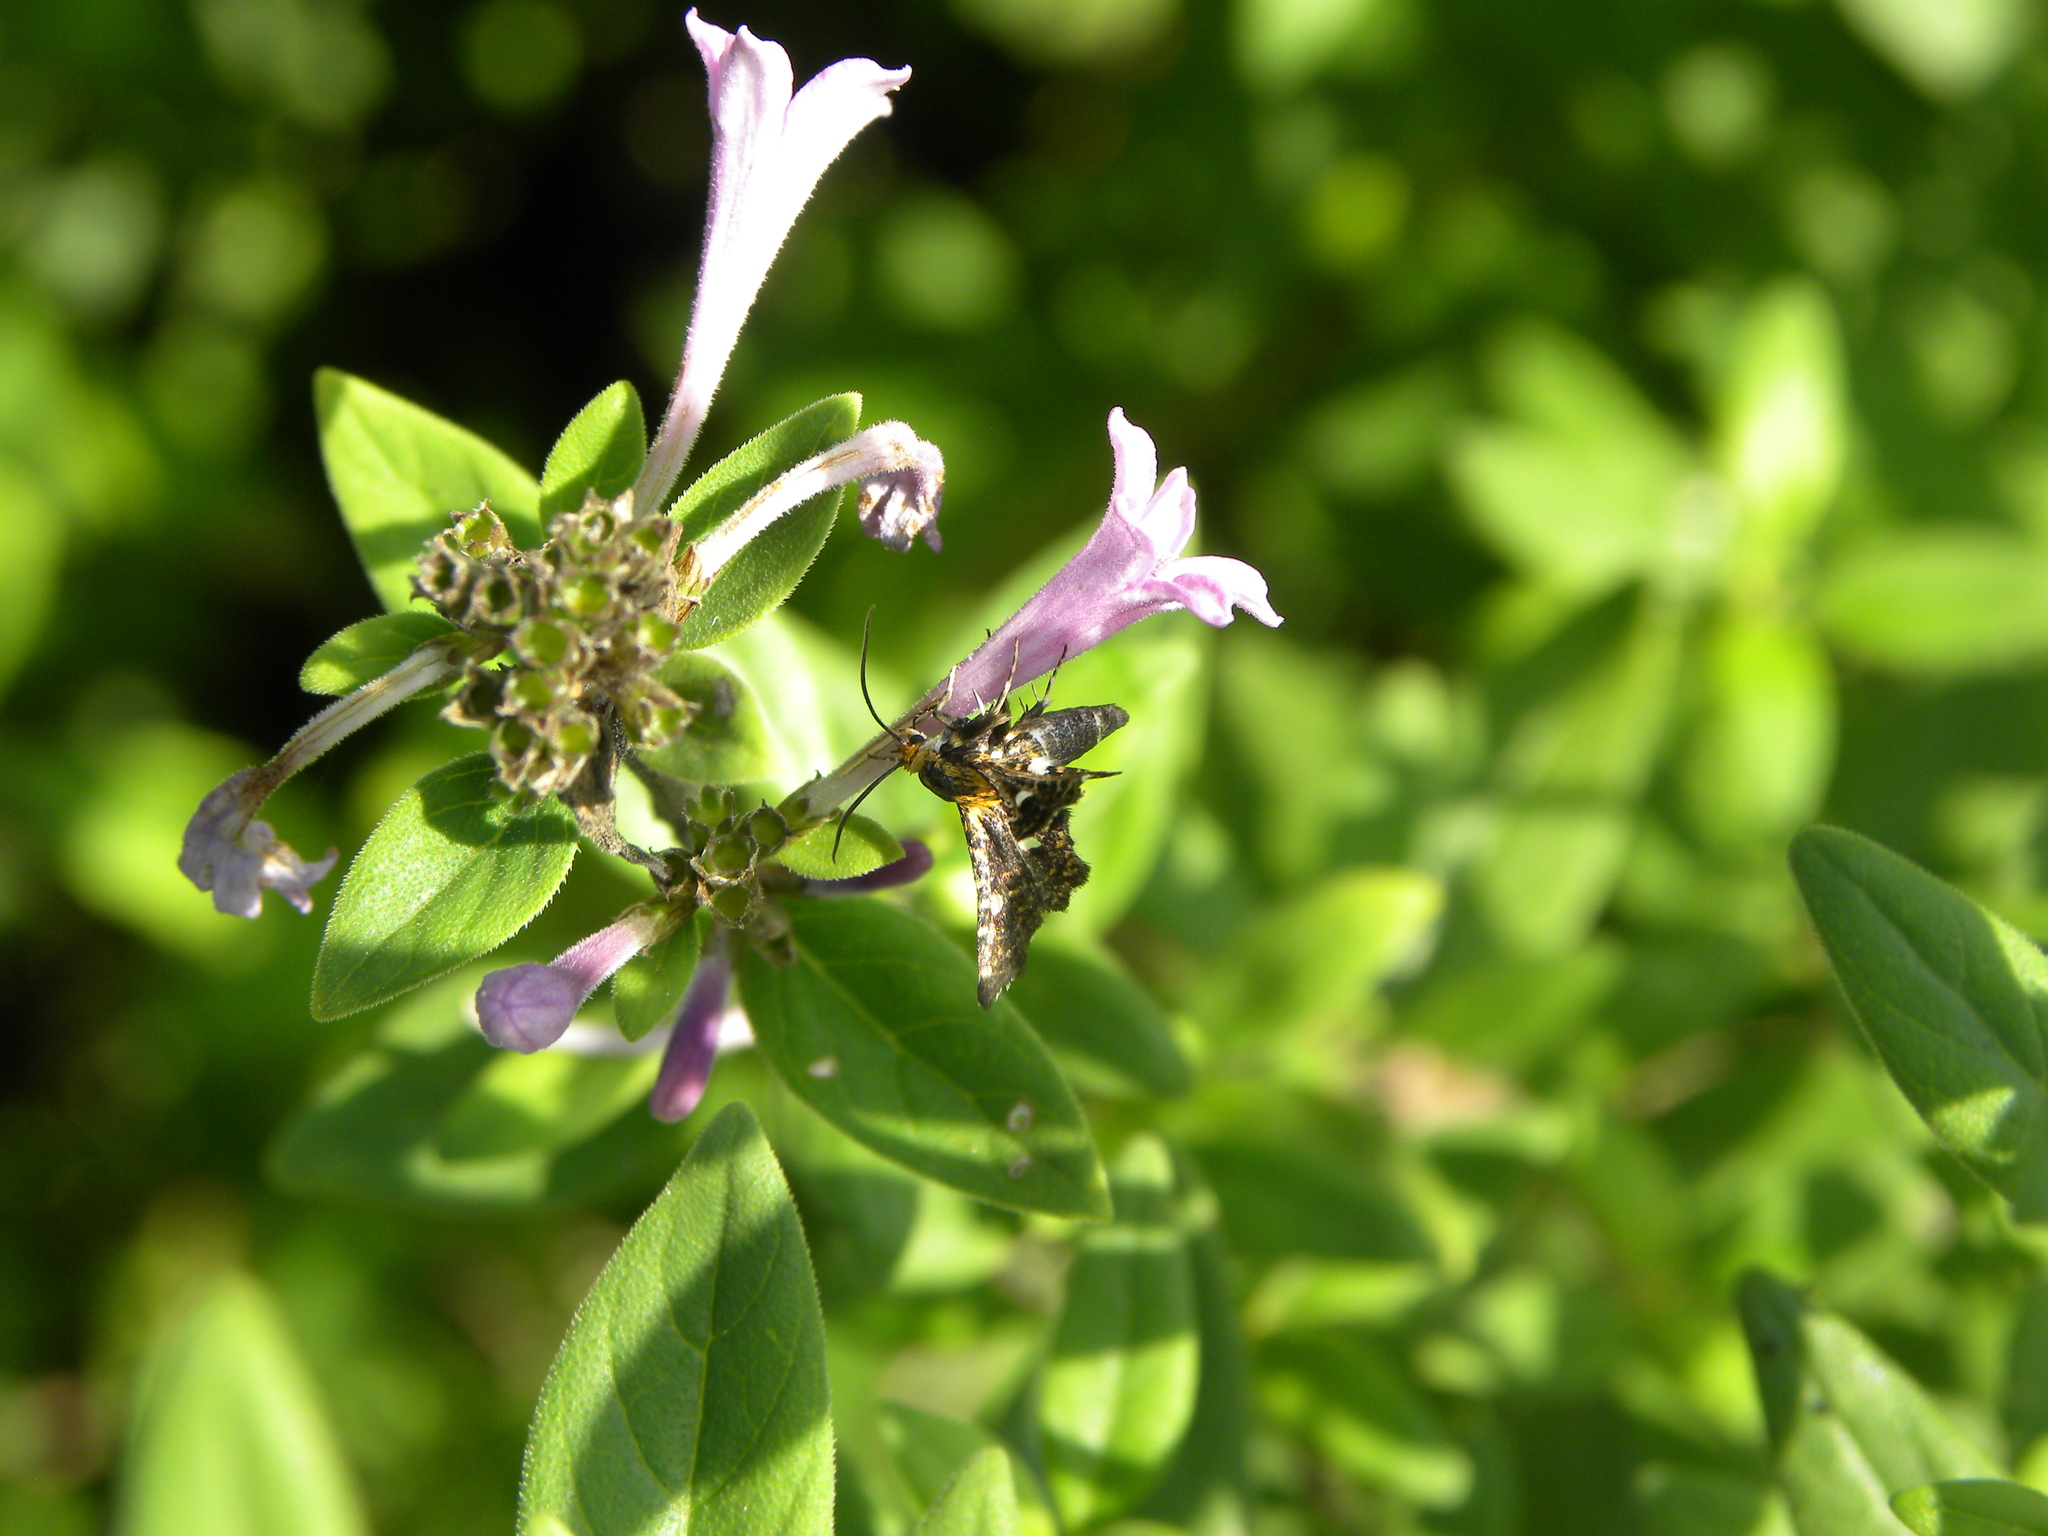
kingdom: Animalia
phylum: Arthropoda
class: Insecta
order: Lepidoptera
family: Thyrididae
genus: Thyris
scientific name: Thyris maculata
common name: Spotted thyris moth
